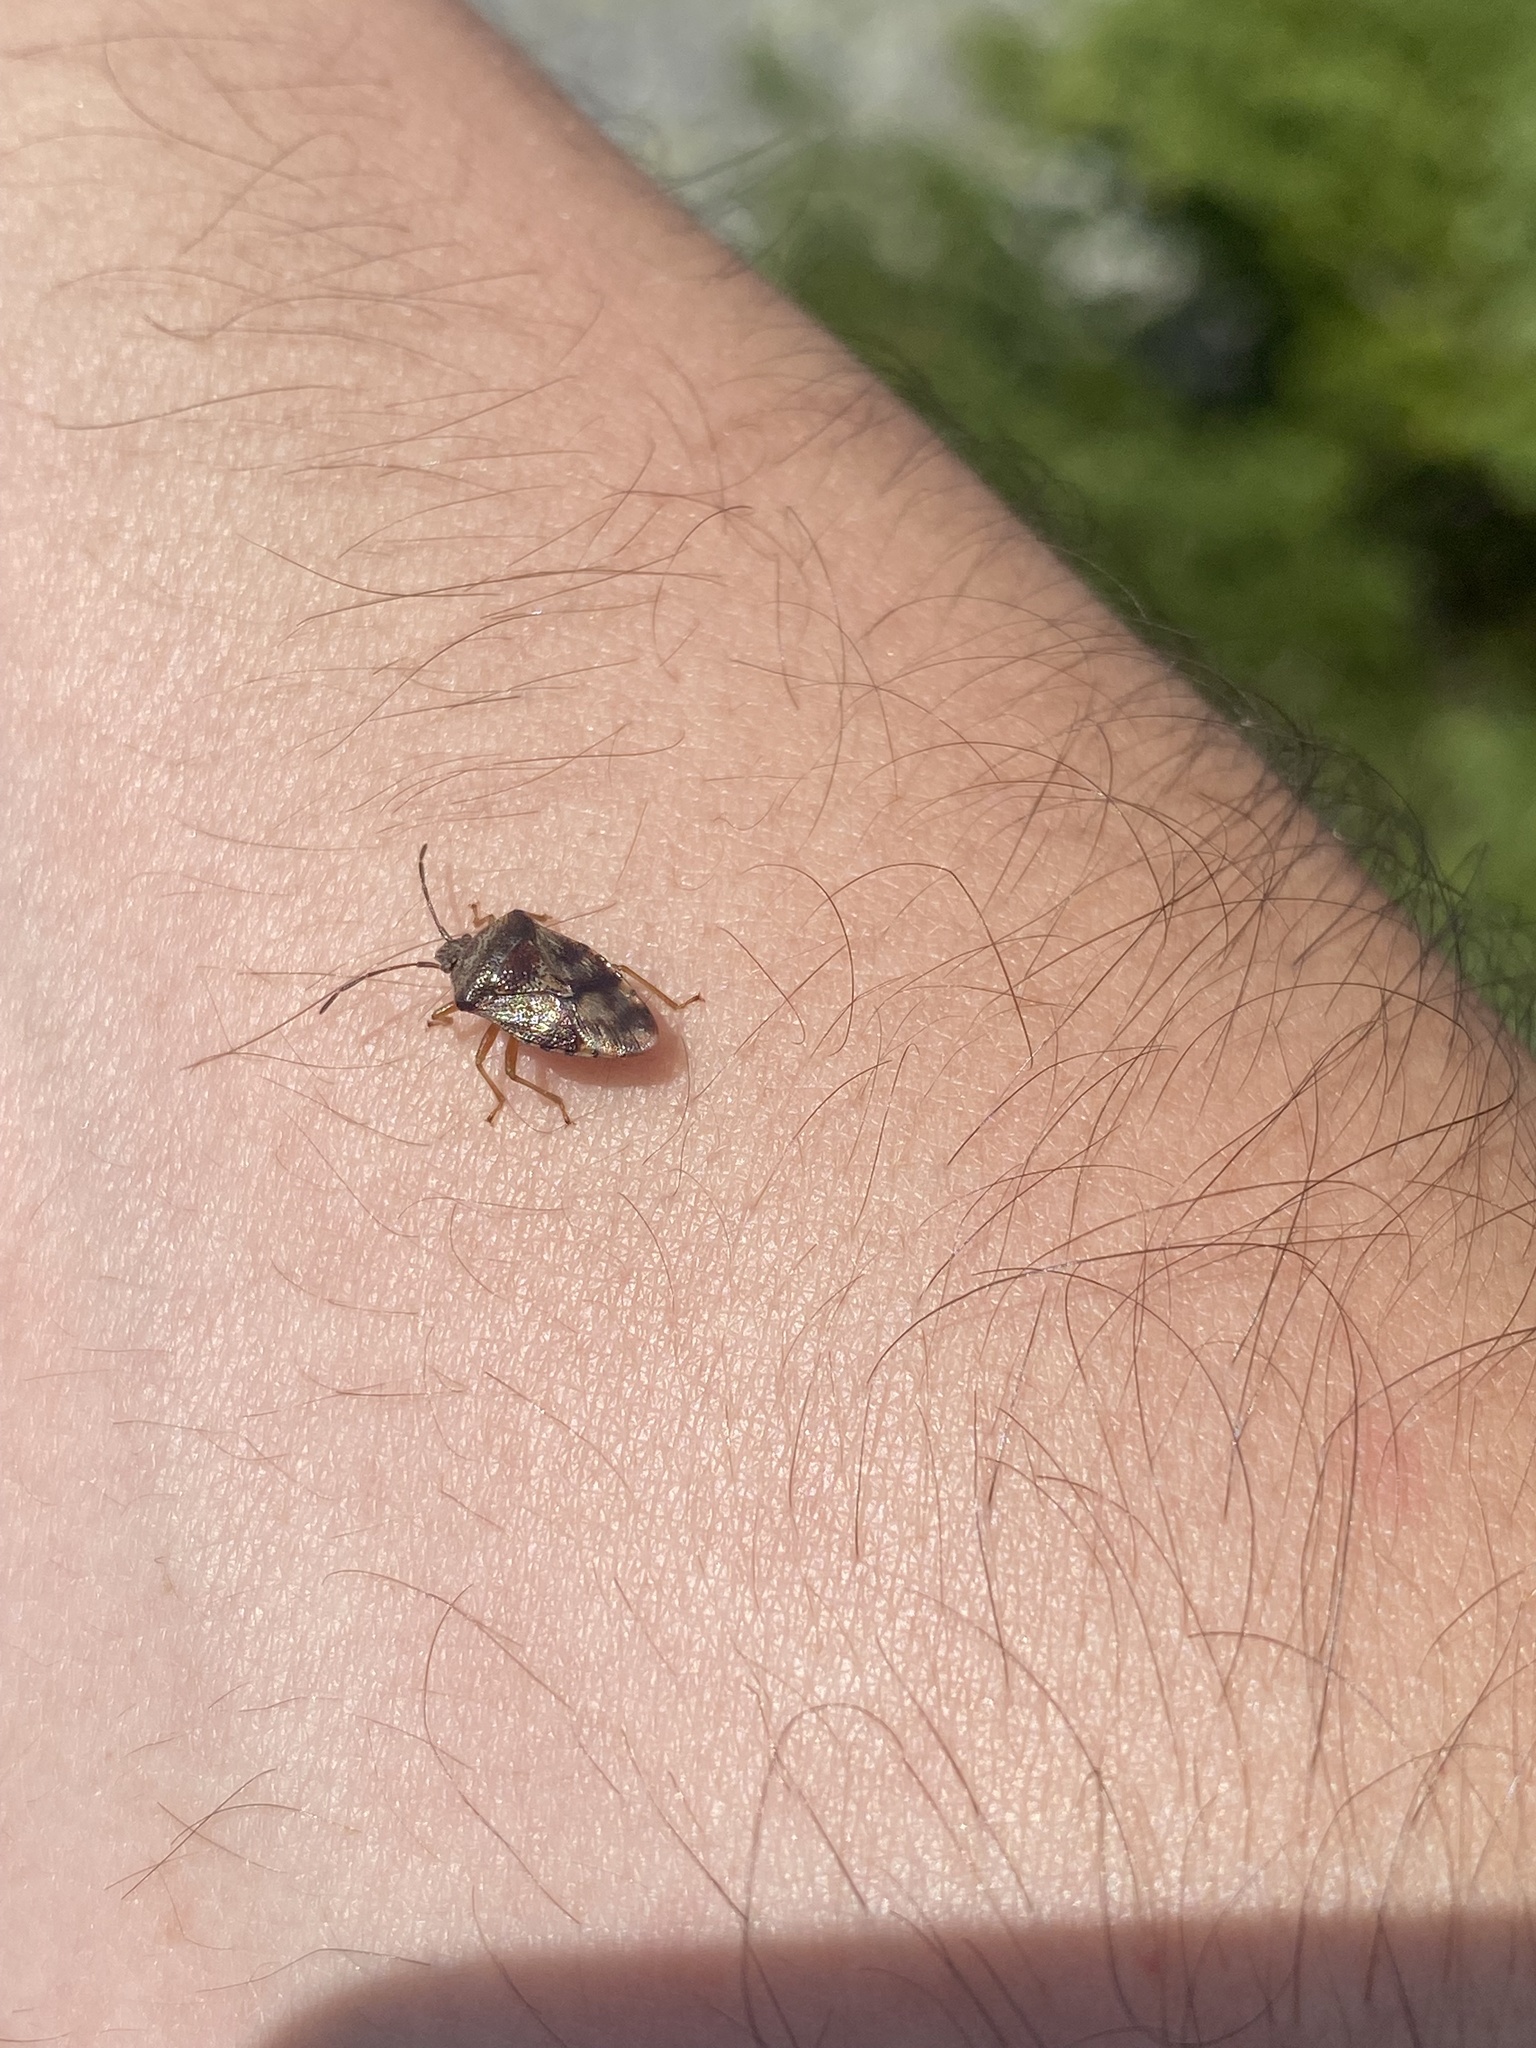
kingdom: Animalia
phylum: Arthropoda
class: Insecta
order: Hemiptera
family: Acanthosomatidae
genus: Elasmucha
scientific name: Elasmucha lateralis
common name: Shield bug
